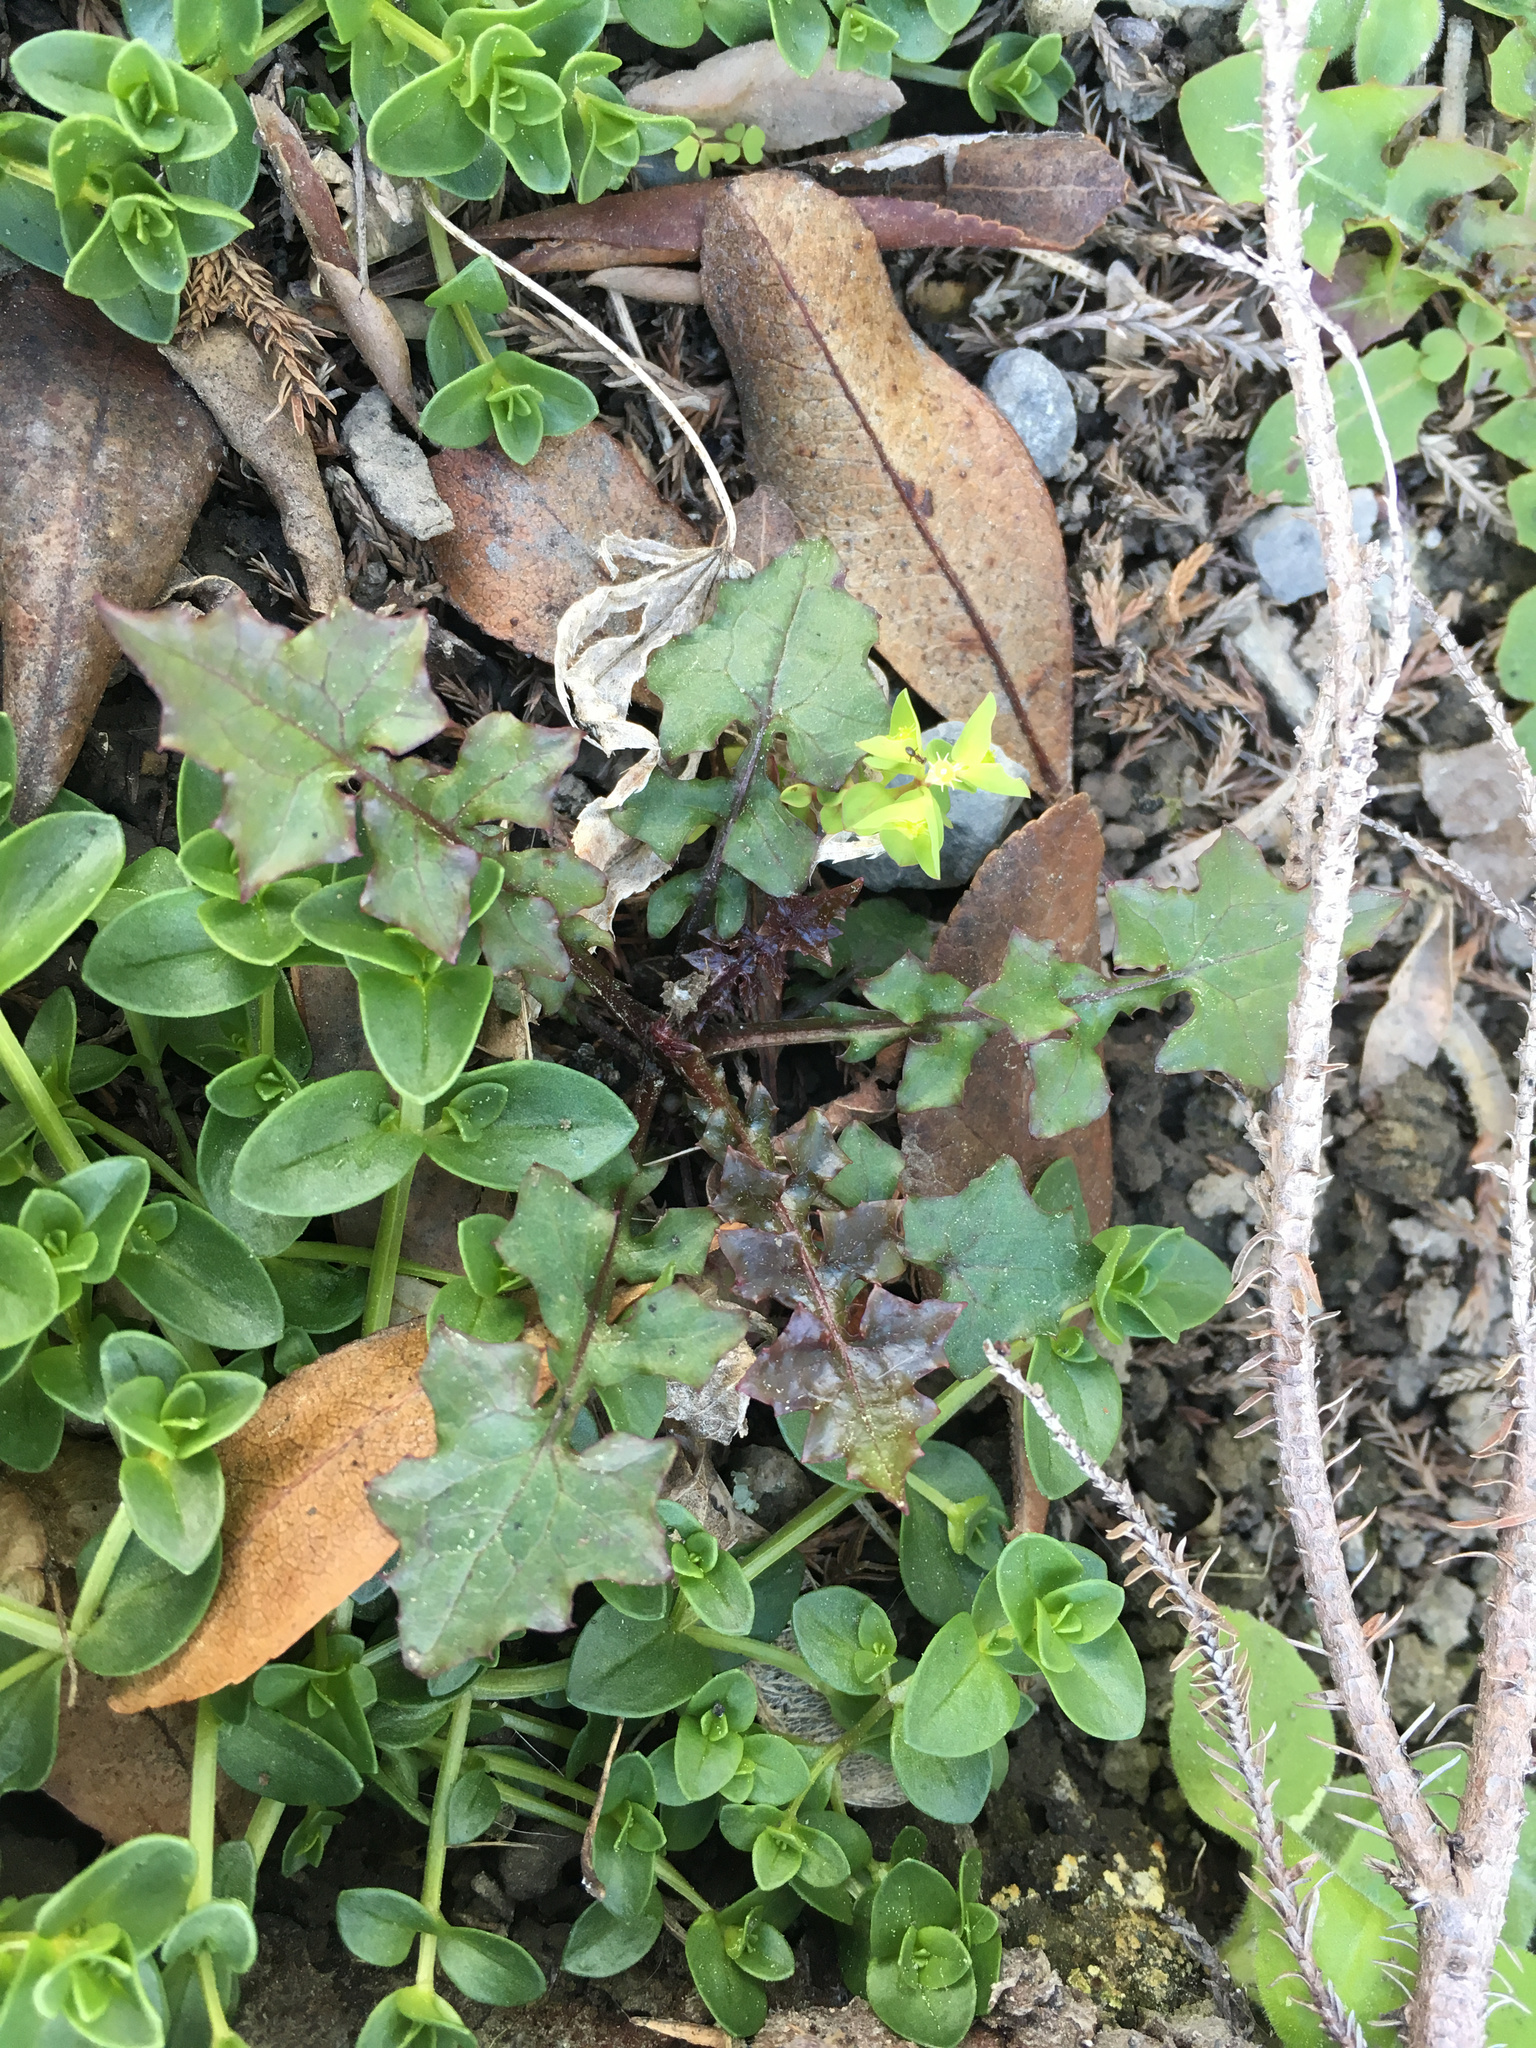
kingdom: Plantae
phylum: Tracheophyta
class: Magnoliopsida
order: Asterales
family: Asteraceae
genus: Mycelis
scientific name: Mycelis muralis
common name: Wall lettuce
